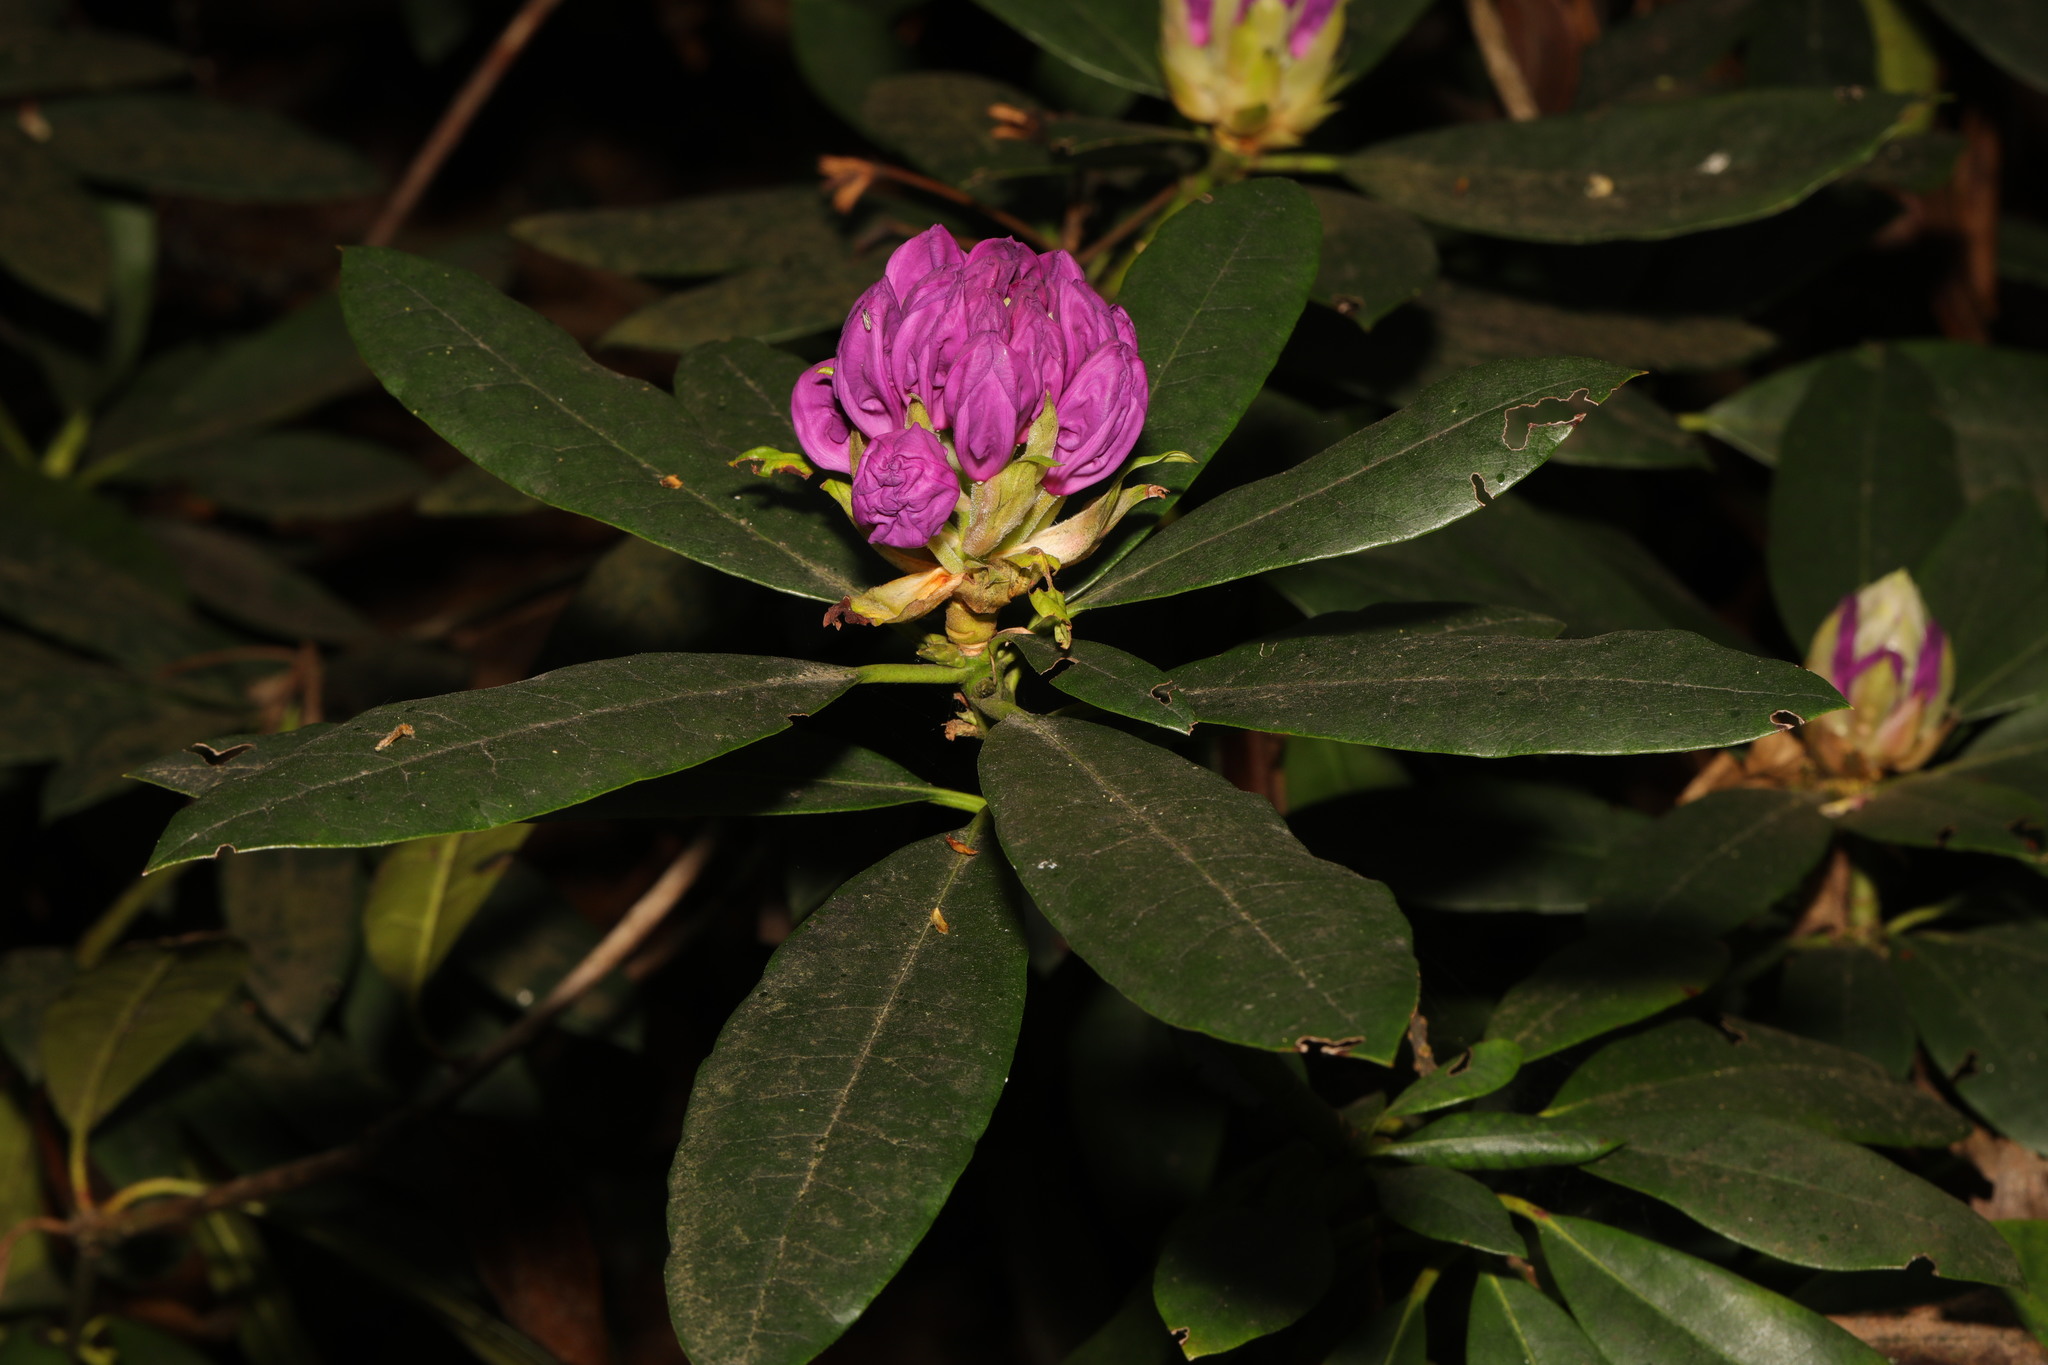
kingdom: Plantae
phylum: Tracheophyta
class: Magnoliopsida
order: Ericales
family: Ericaceae
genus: Rhododendron
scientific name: Rhododendron ponticum
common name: Rhododendron
